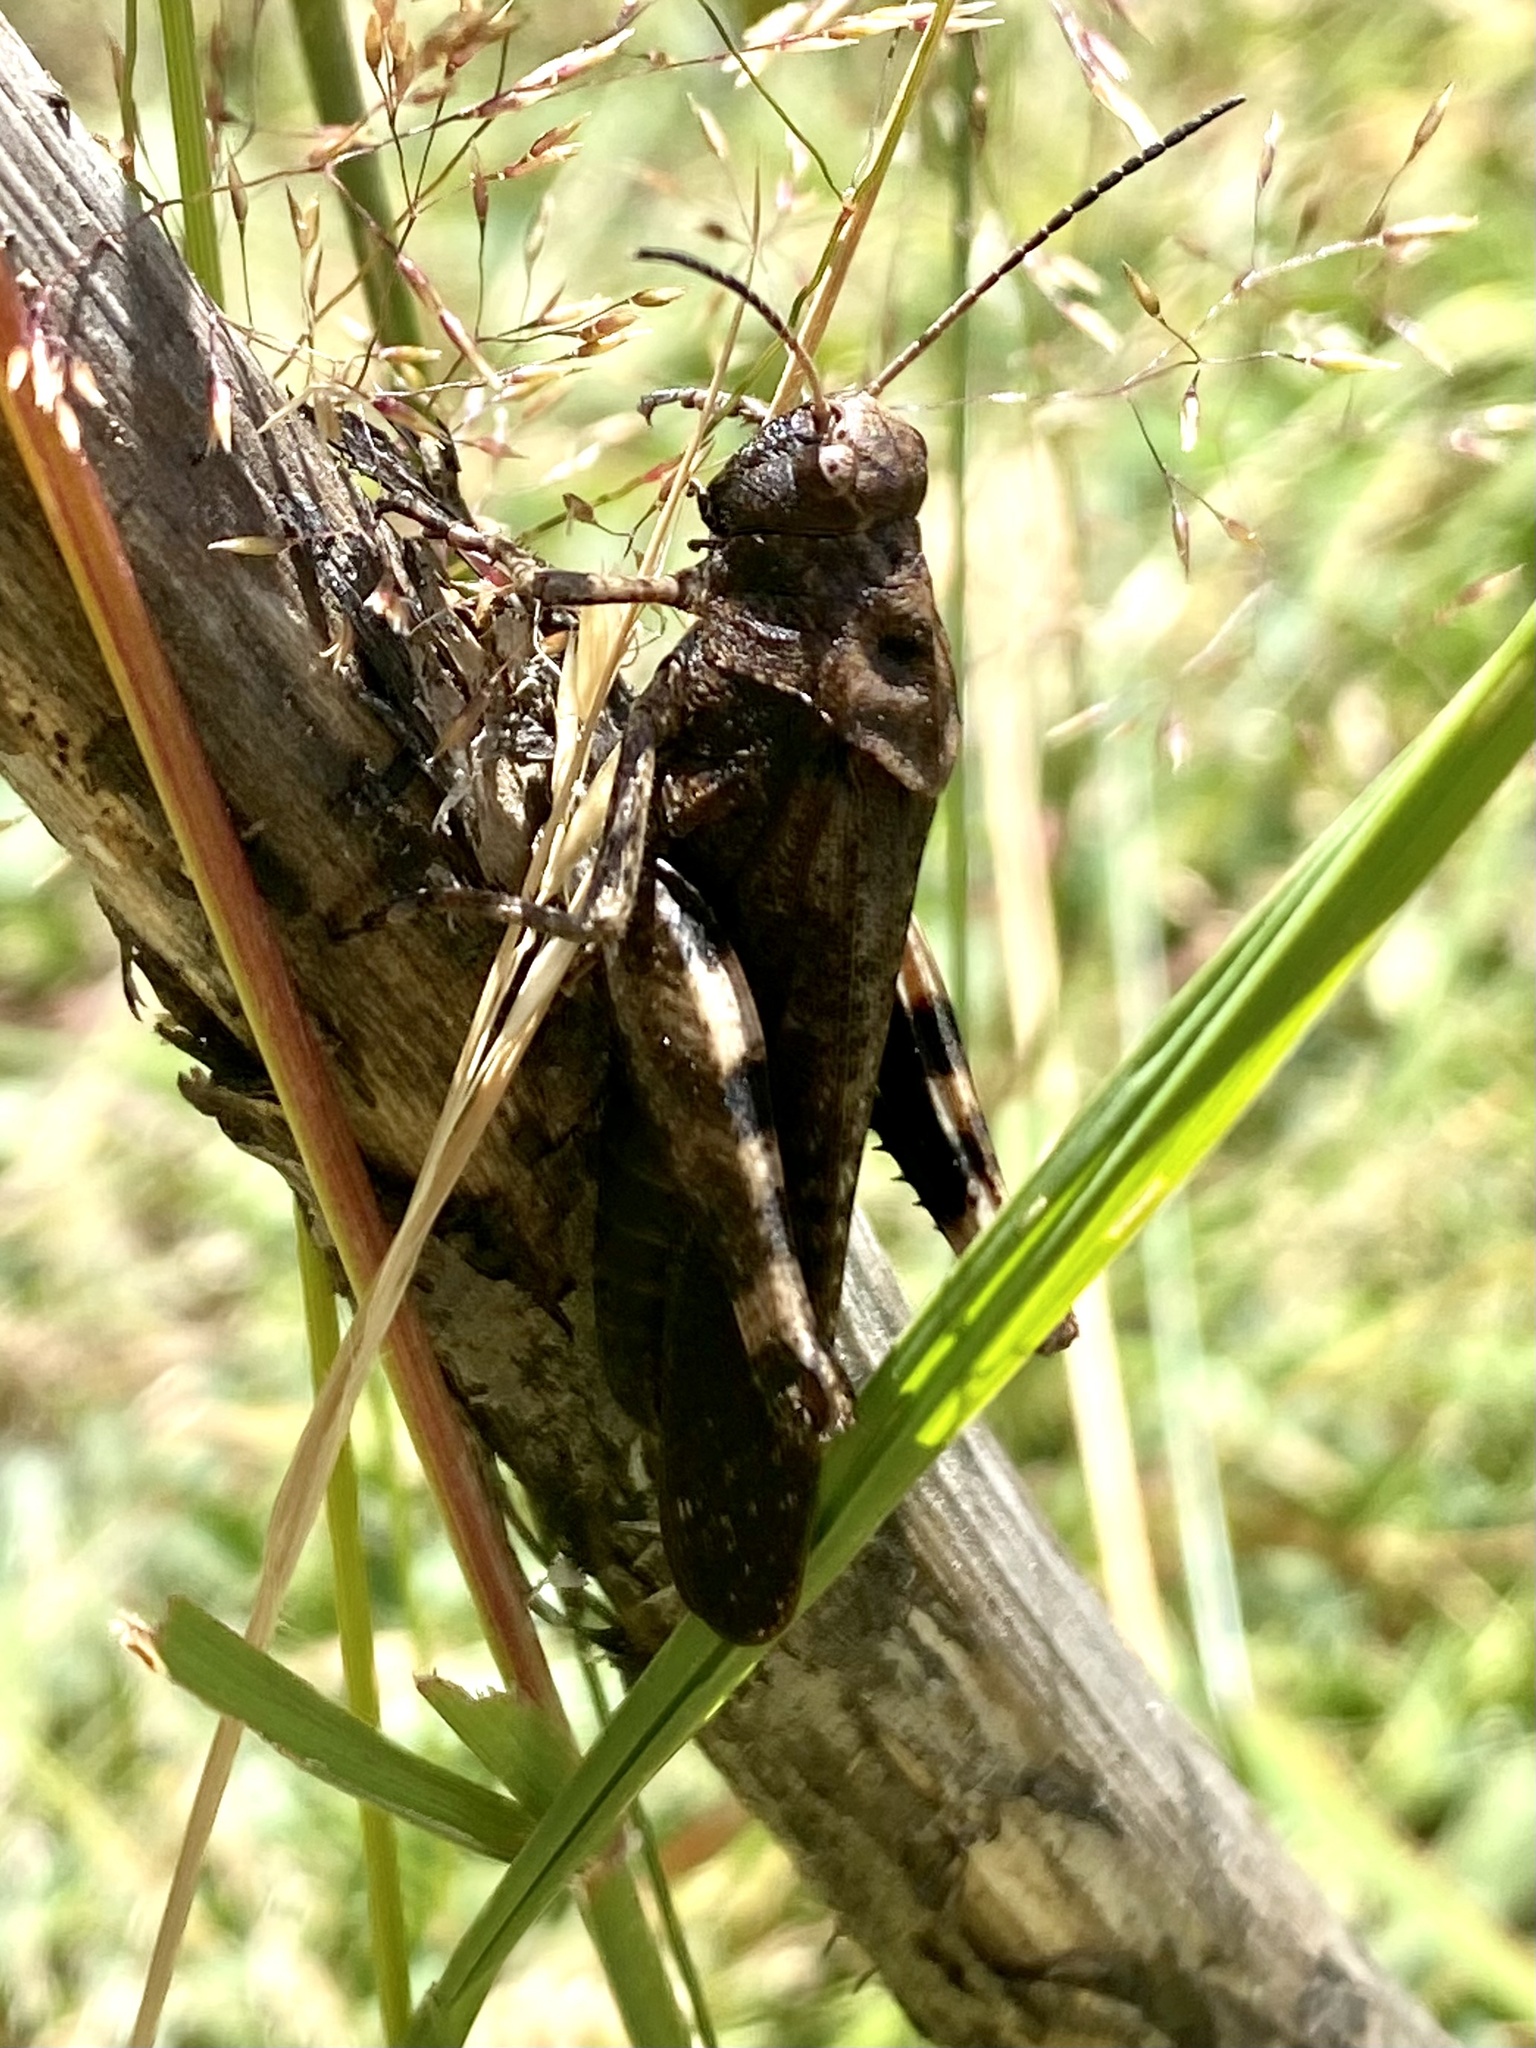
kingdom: Animalia
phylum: Arthropoda
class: Insecta
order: Orthoptera
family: Acrididae
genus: Psophus
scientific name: Psophus stridulus
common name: Rattle grasshopper
